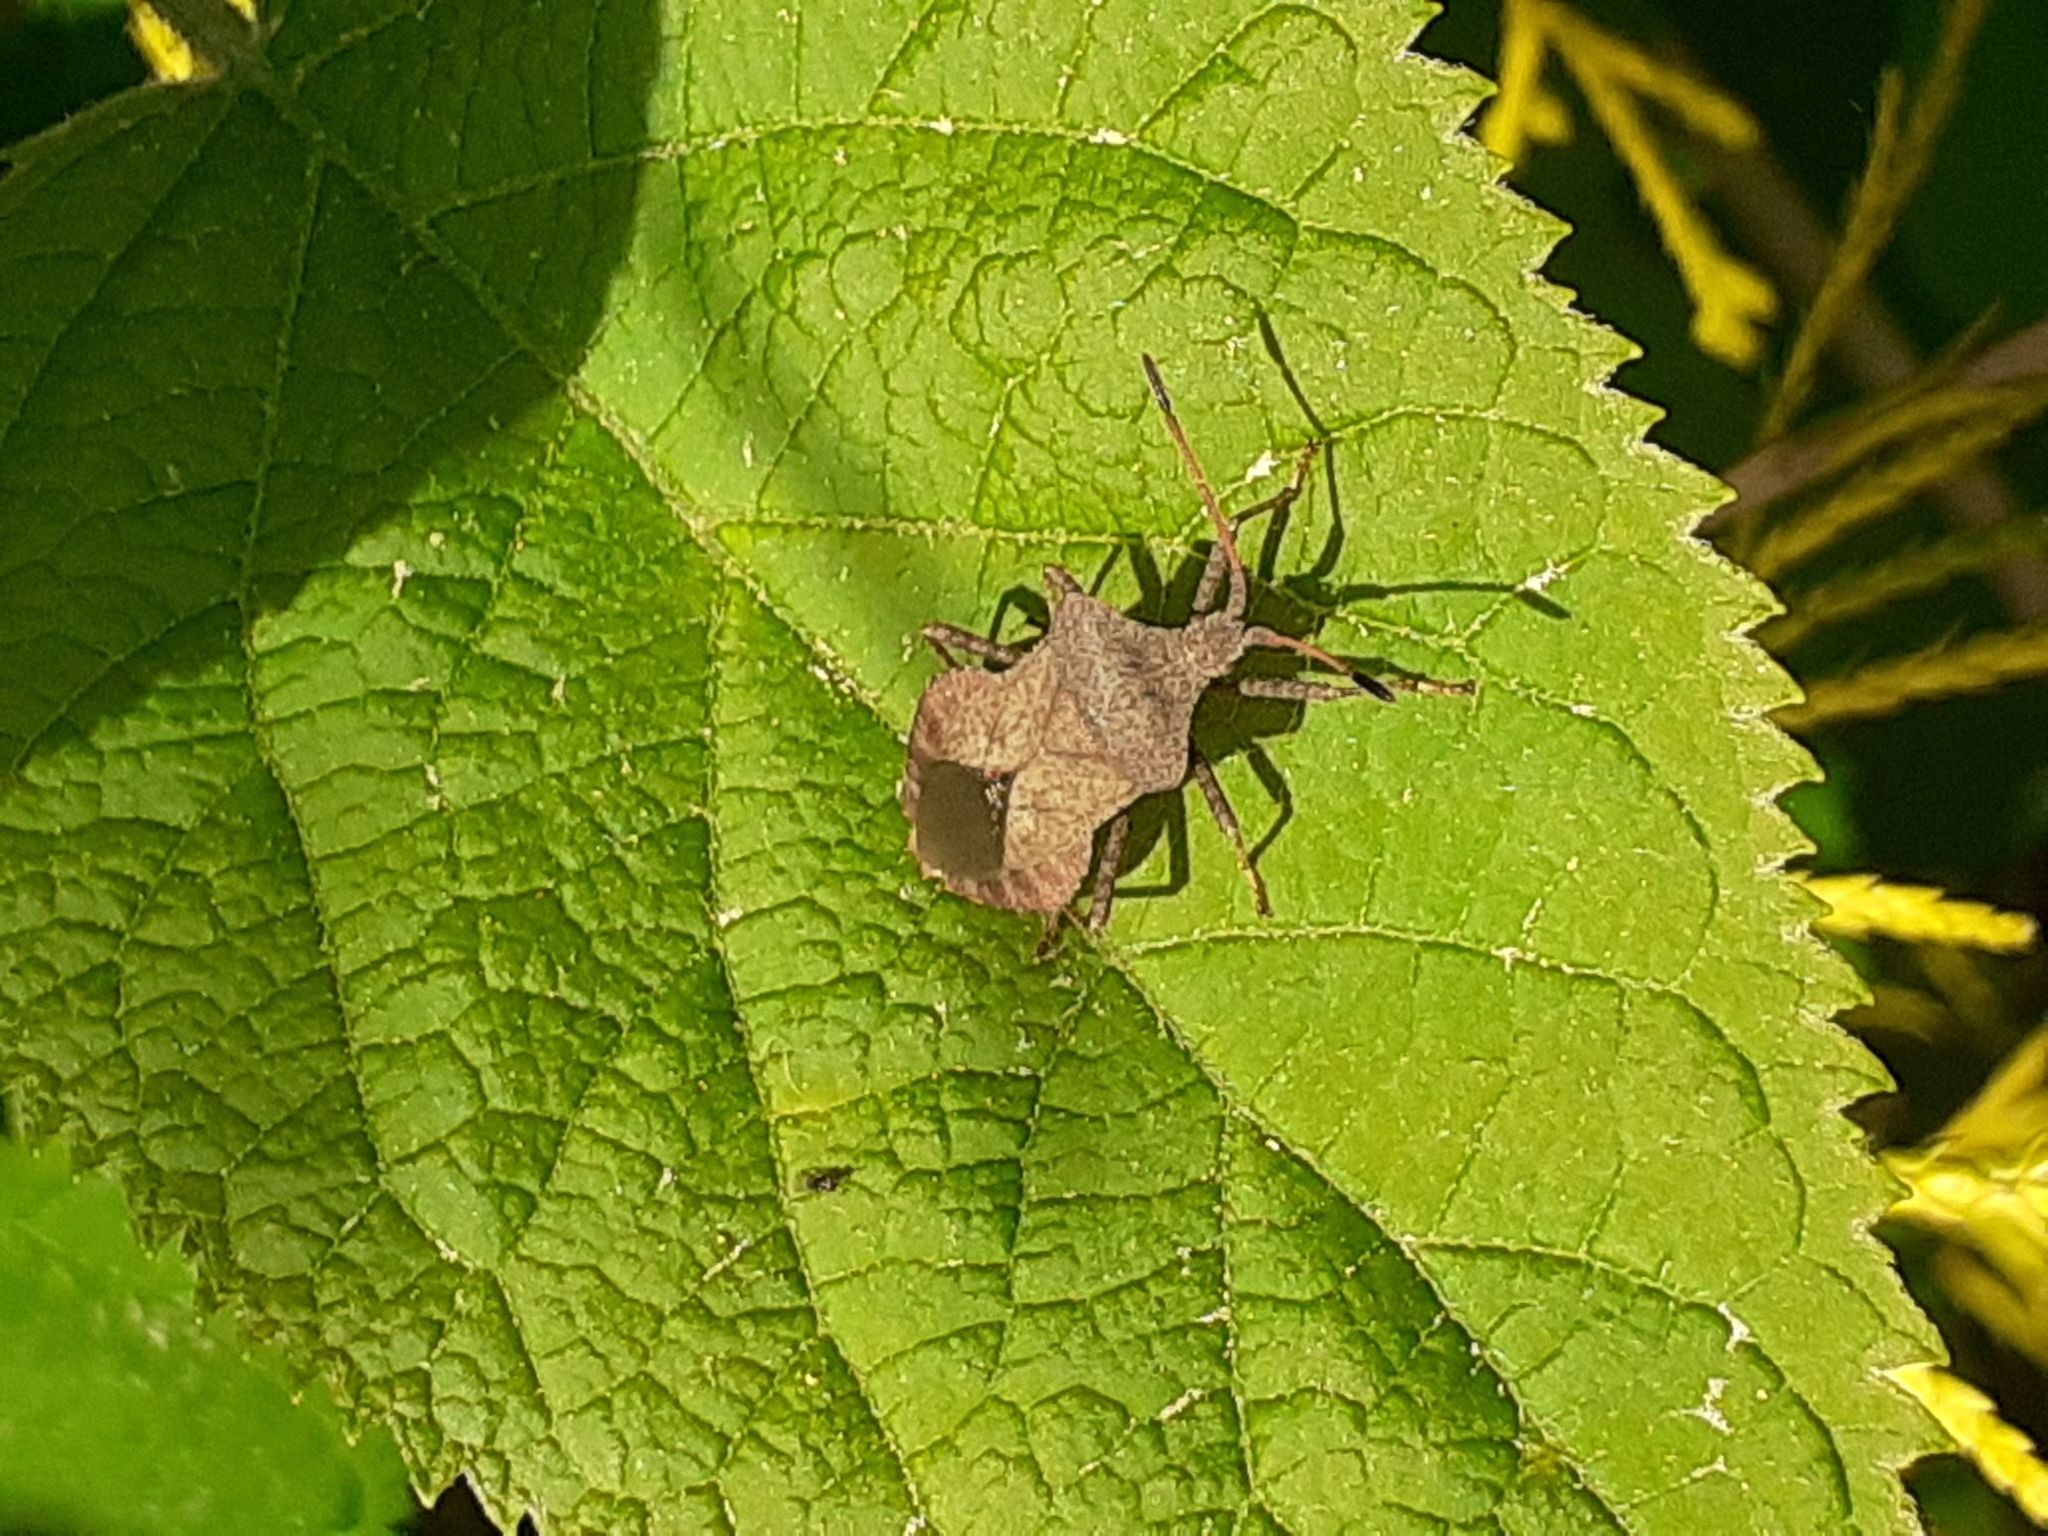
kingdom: Animalia
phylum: Arthropoda
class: Insecta
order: Hemiptera
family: Coreidae
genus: Coreus
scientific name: Coreus marginatus
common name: Dock bug
